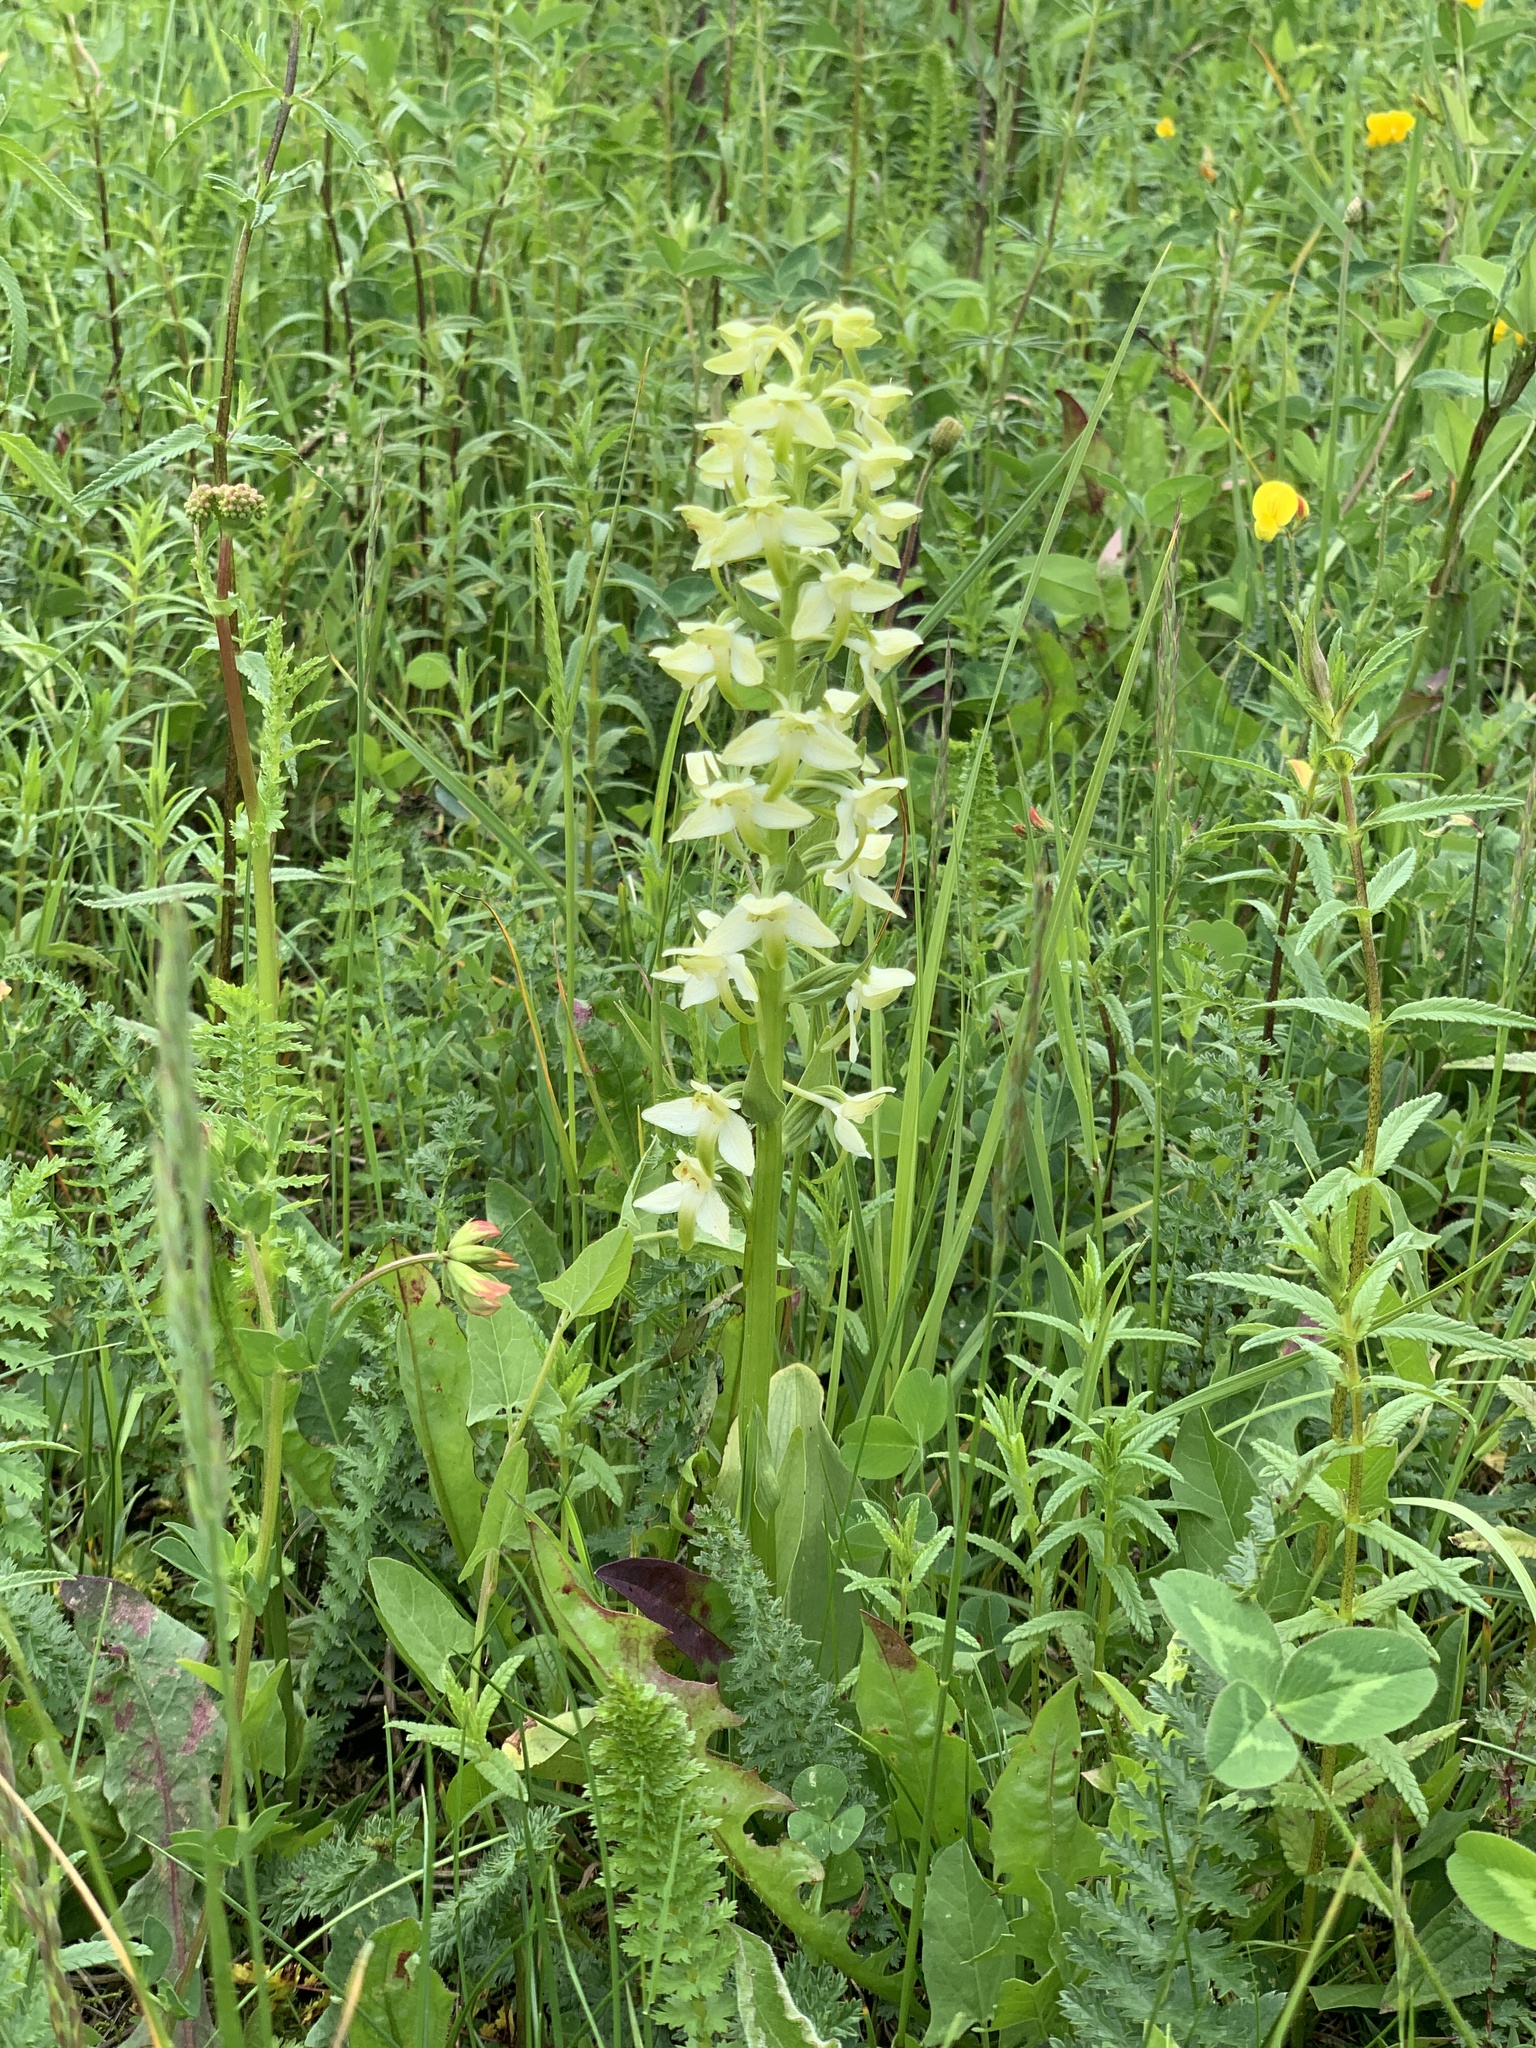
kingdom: Plantae
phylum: Tracheophyta
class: Liliopsida
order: Asparagales
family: Orchidaceae
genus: Platanthera
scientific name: Platanthera chlorantha
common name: Greater butterfly-orchid
